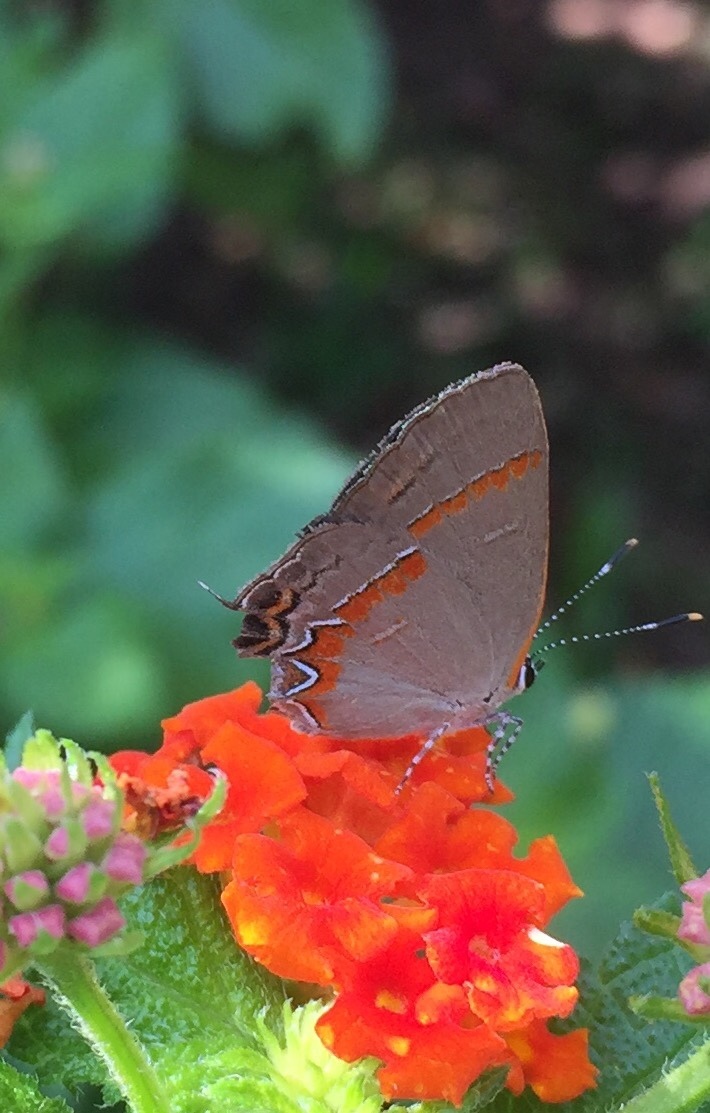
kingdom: Animalia
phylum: Arthropoda
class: Insecta
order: Lepidoptera
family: Lycaenidae
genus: Calycopis
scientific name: Calycopis cecrops
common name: Red-banded hairstreak
